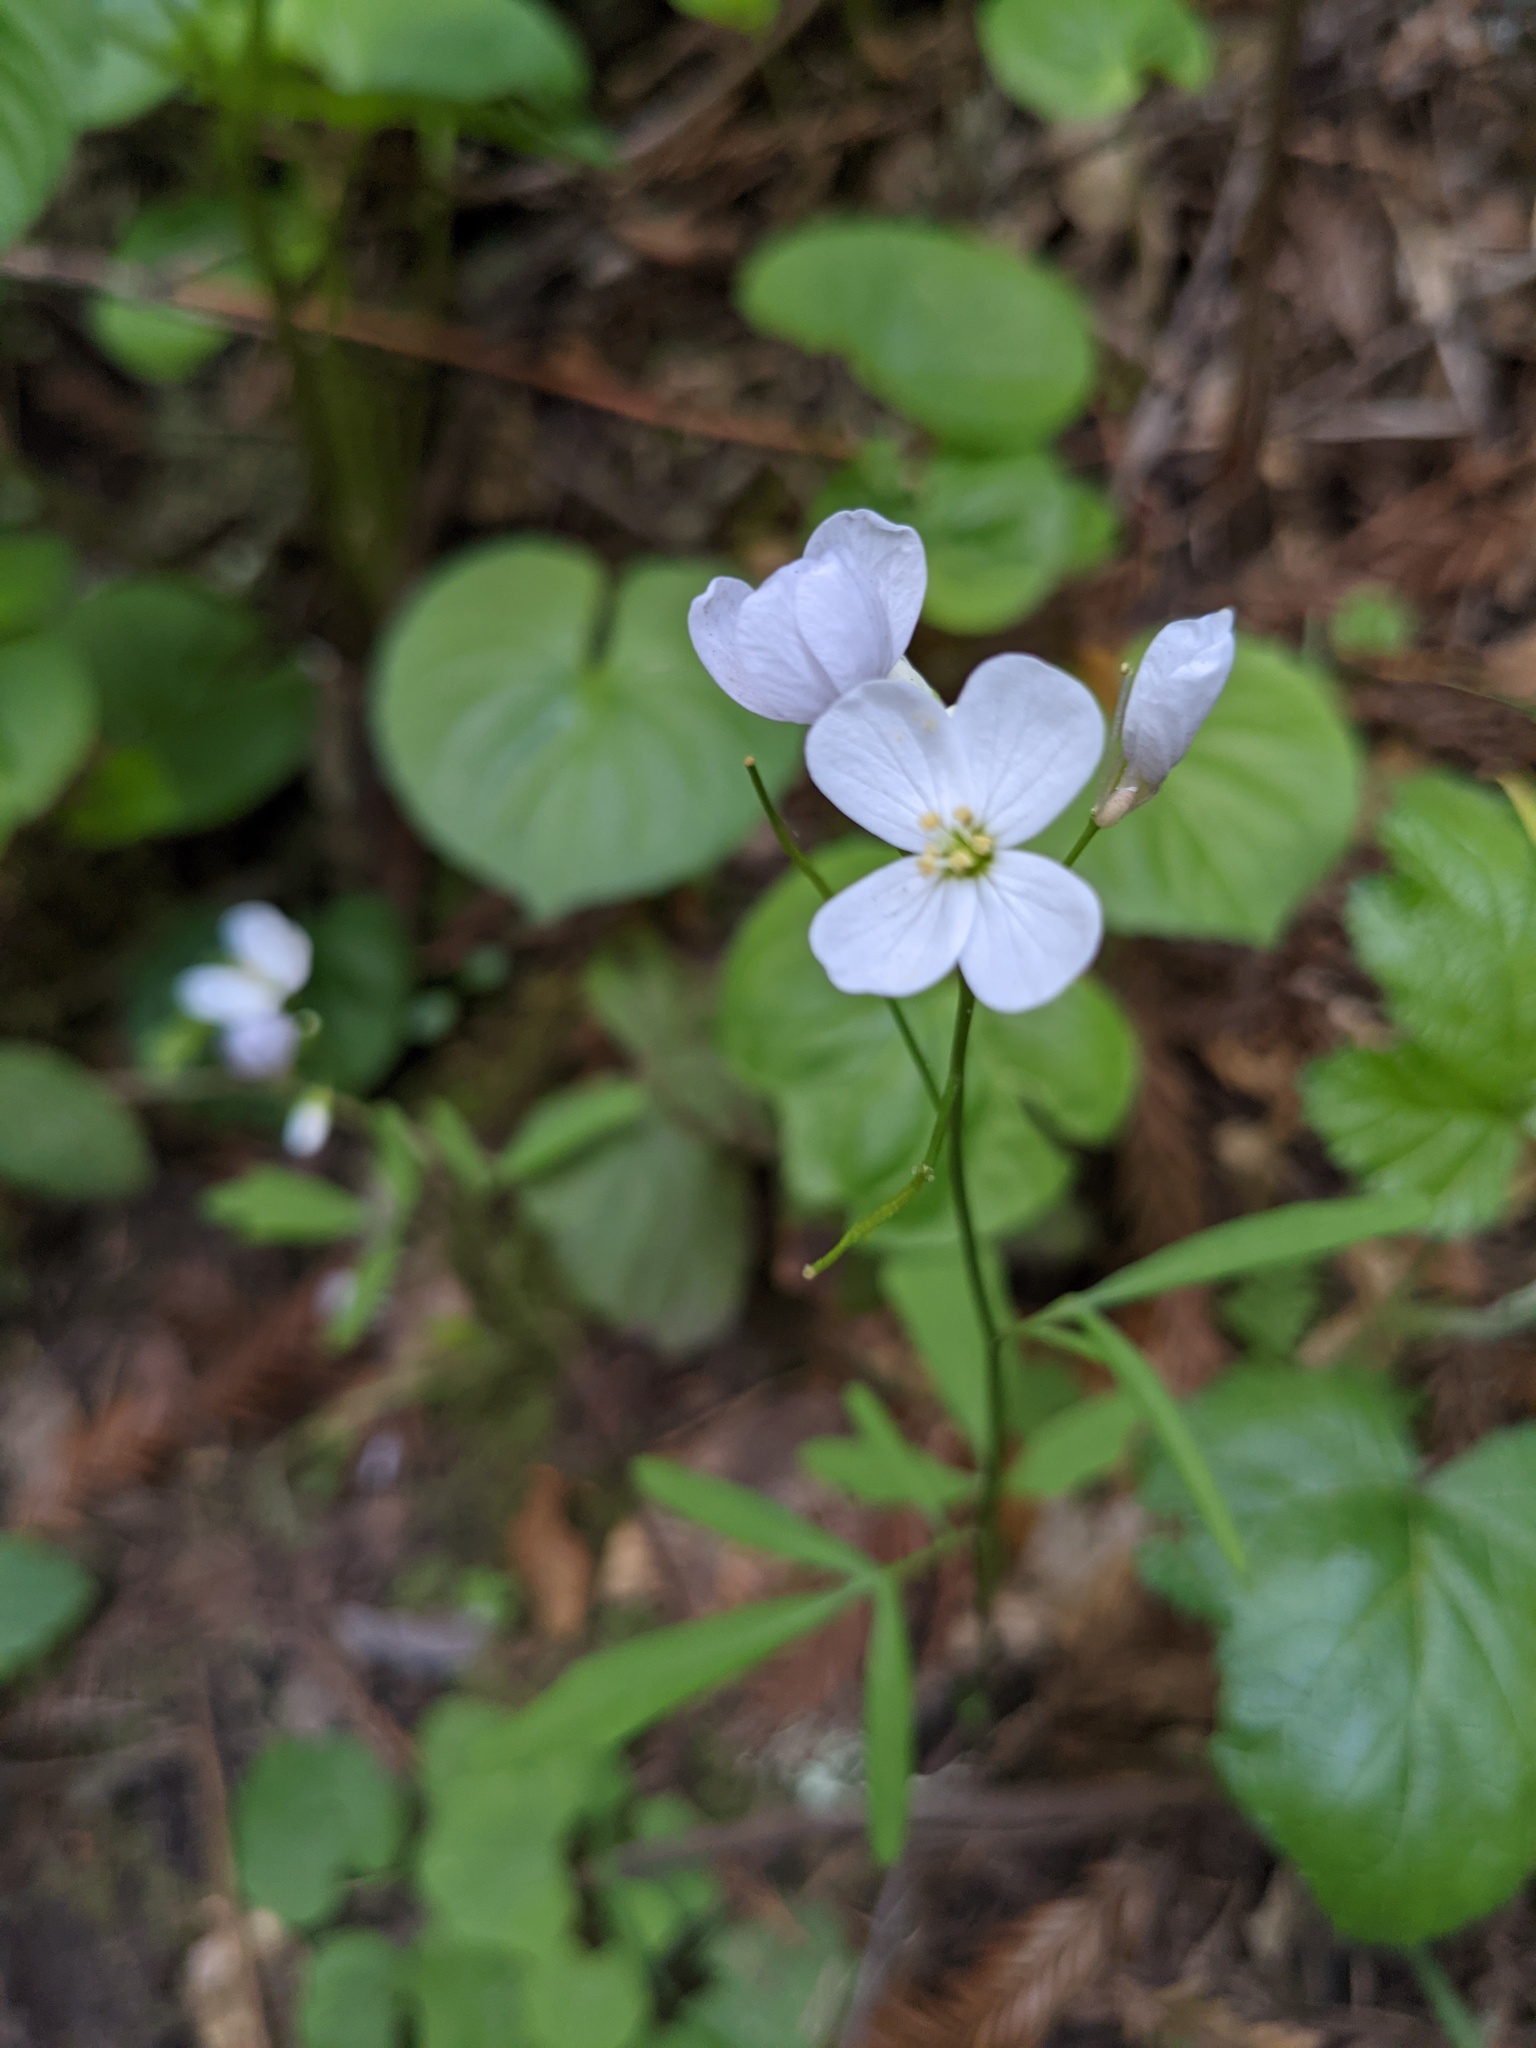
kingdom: Plantae
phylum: Tracheophyta
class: Magnoliopsida
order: Brassicales
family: Brassicaceae
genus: Cardamine
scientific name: Cardamine californica
